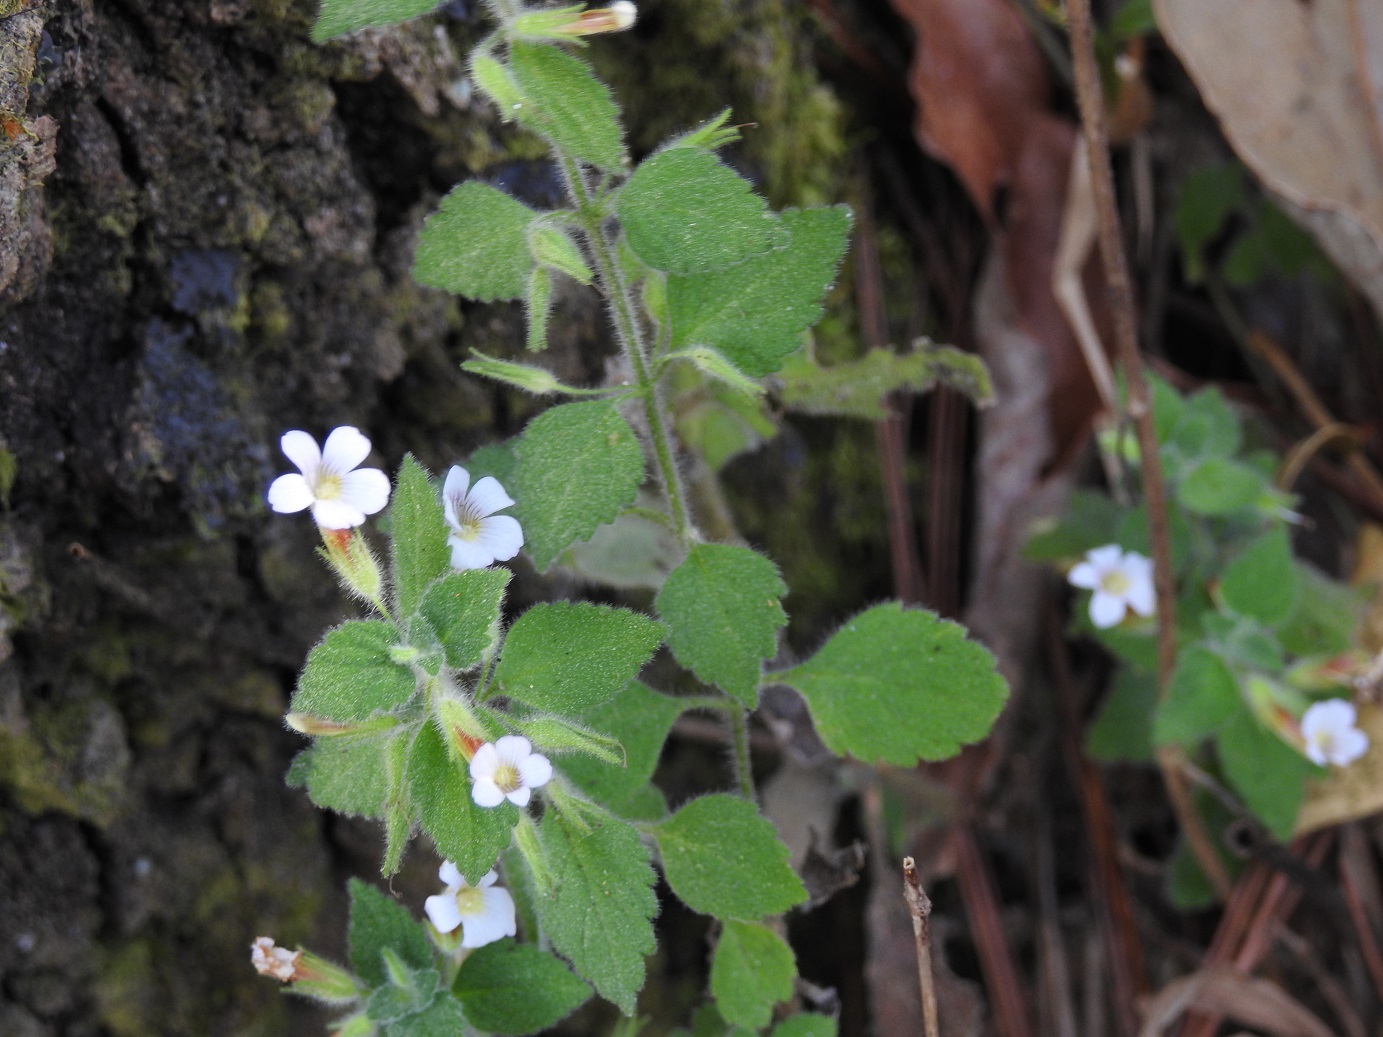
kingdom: Plantae
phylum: Tracheophyta
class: Magnoliopsida
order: Lamiales
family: Plantaginaceae
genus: Stemodia
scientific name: Stemodia peduncularis
